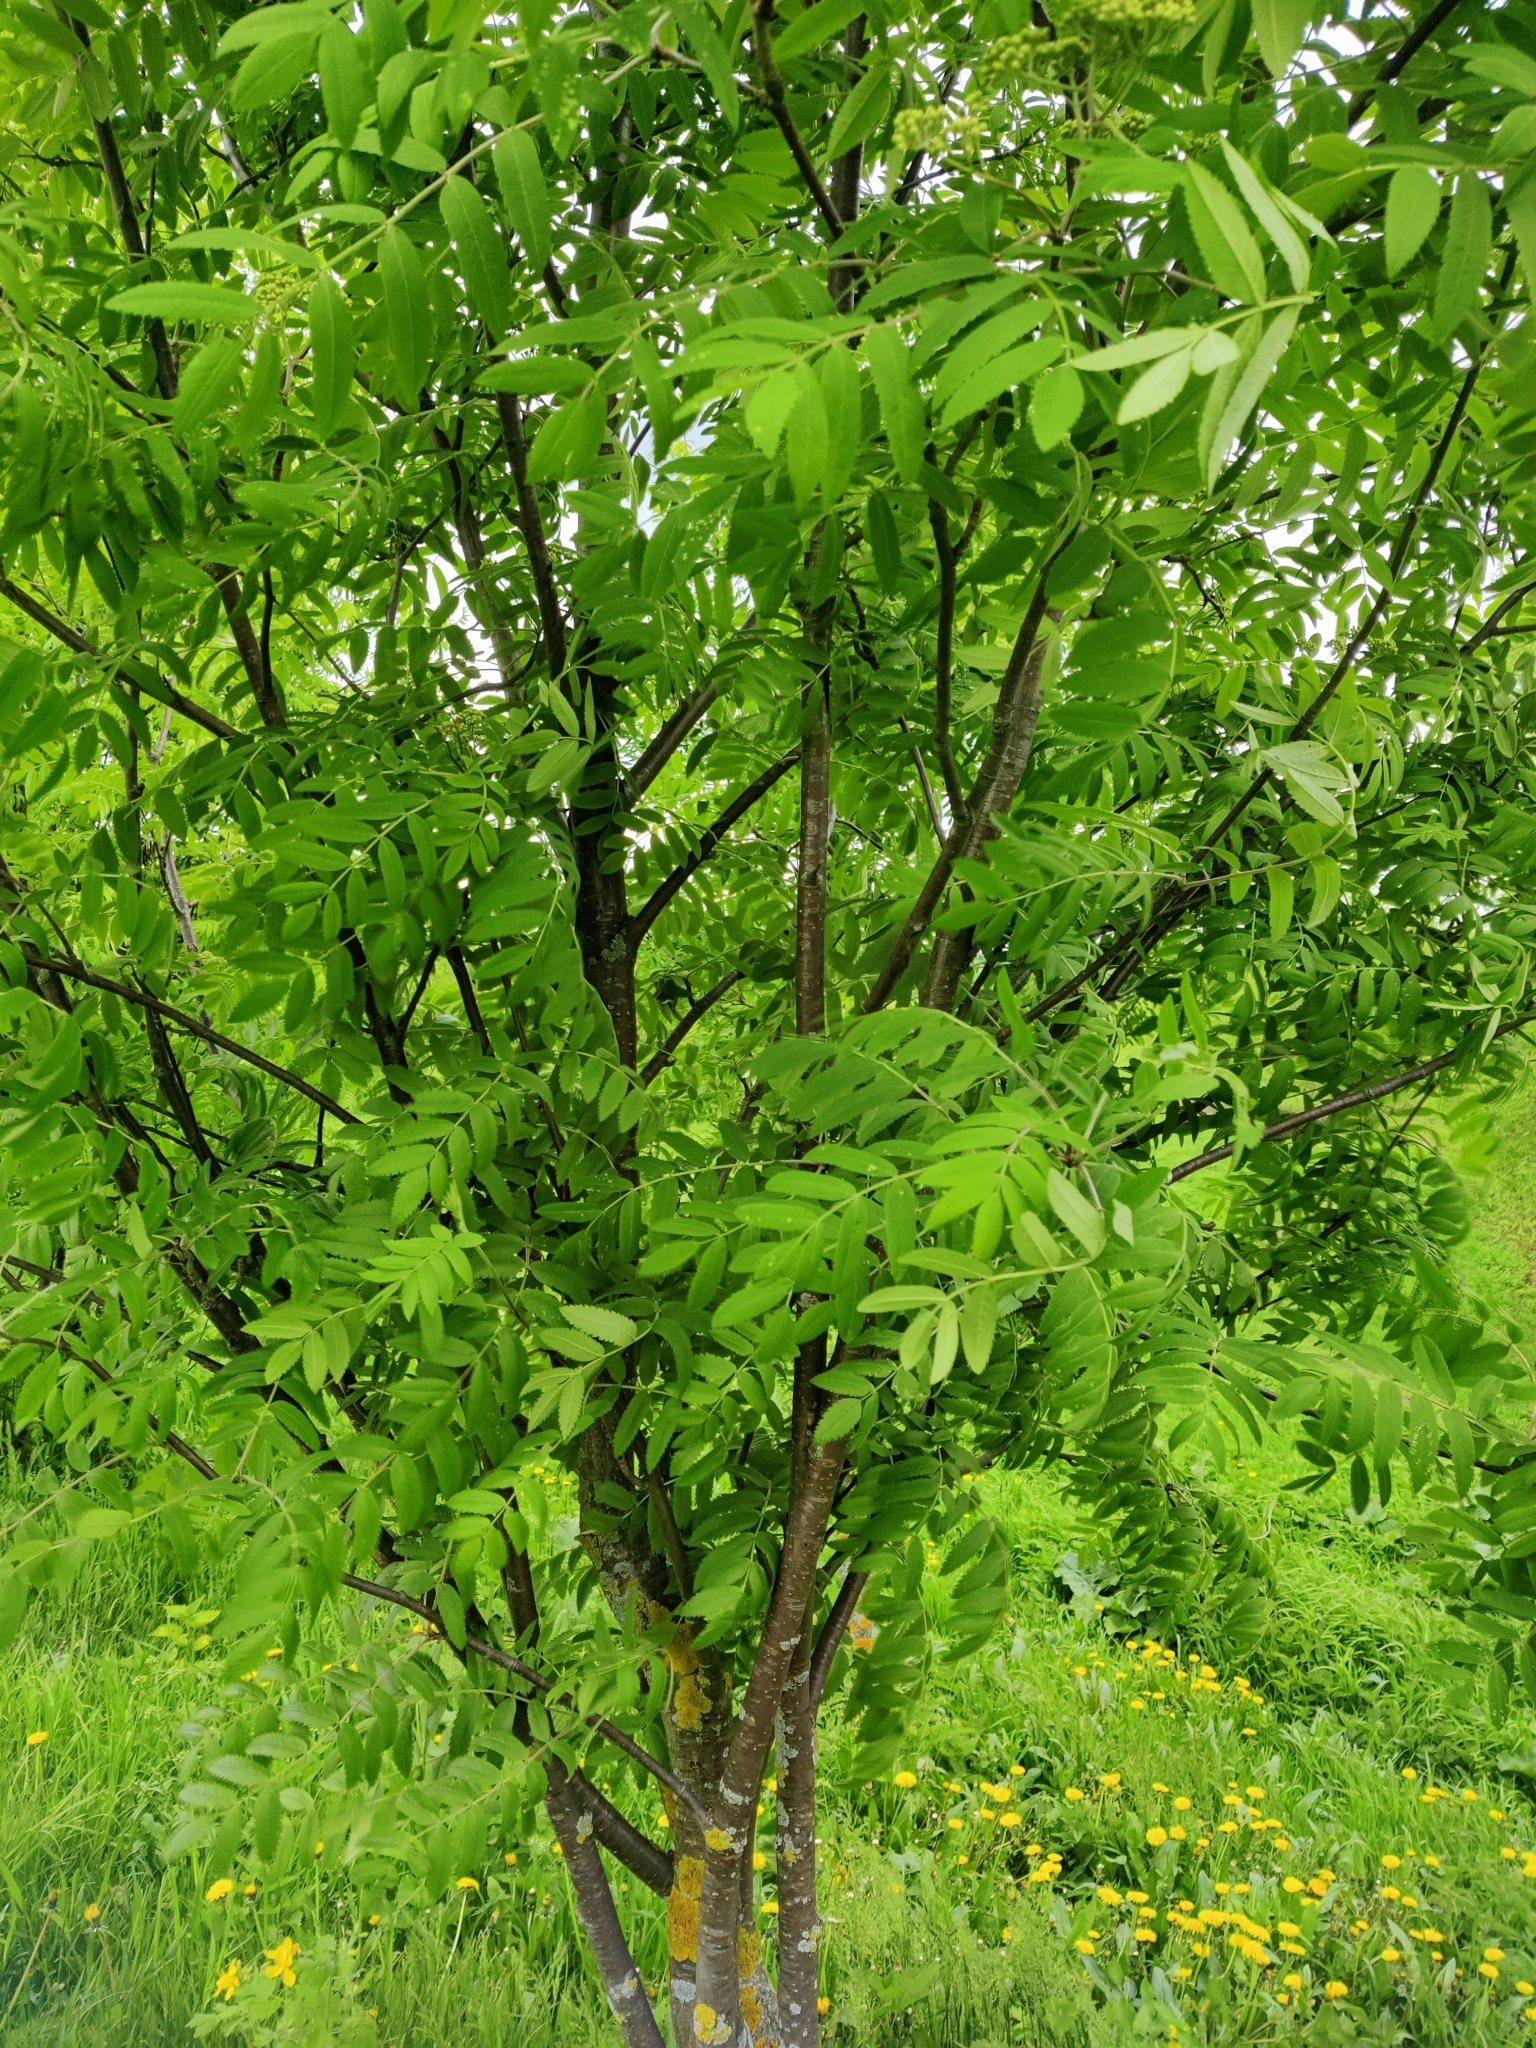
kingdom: Plantae
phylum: Tracheophyta
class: Magnoliopsida
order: Rosales
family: Rosaceae
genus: Sorbus
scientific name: Sorbus aucuparia
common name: Rowan
